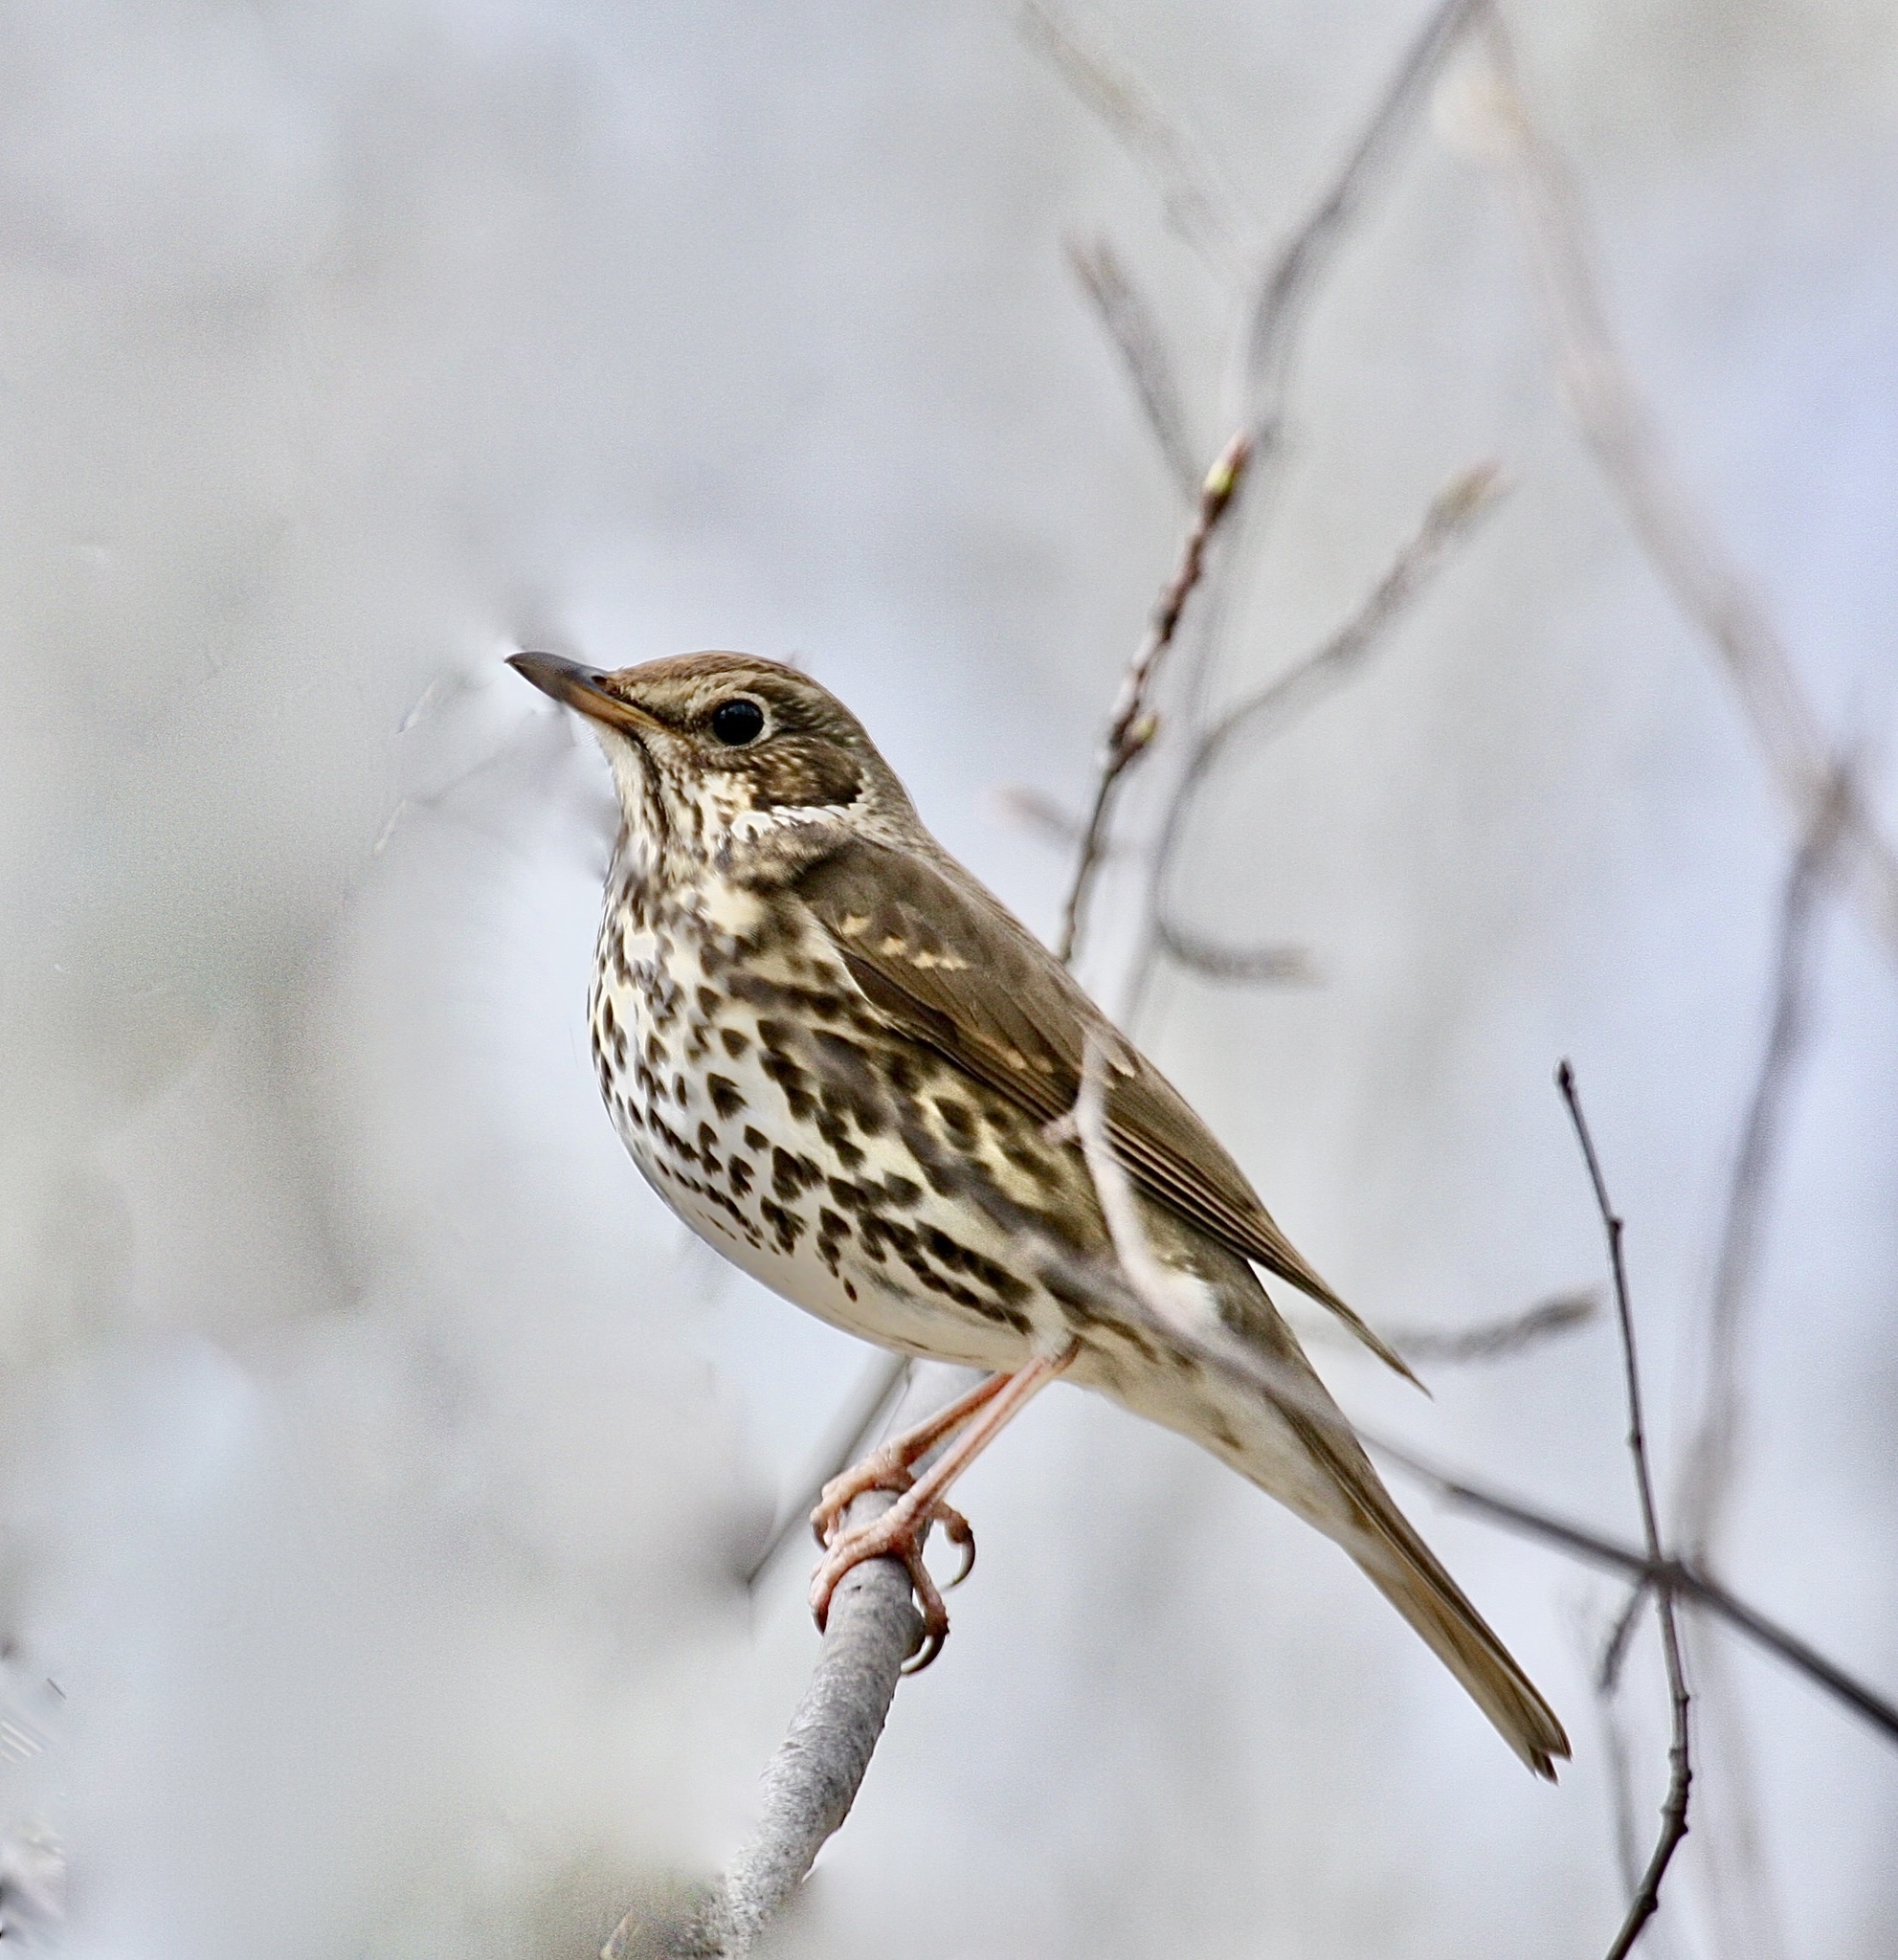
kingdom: Animalia
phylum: Chordata
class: Aves
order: Passeriformes
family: Turdidae
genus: Turdus
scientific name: Turdus philomelos
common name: Song thrush
